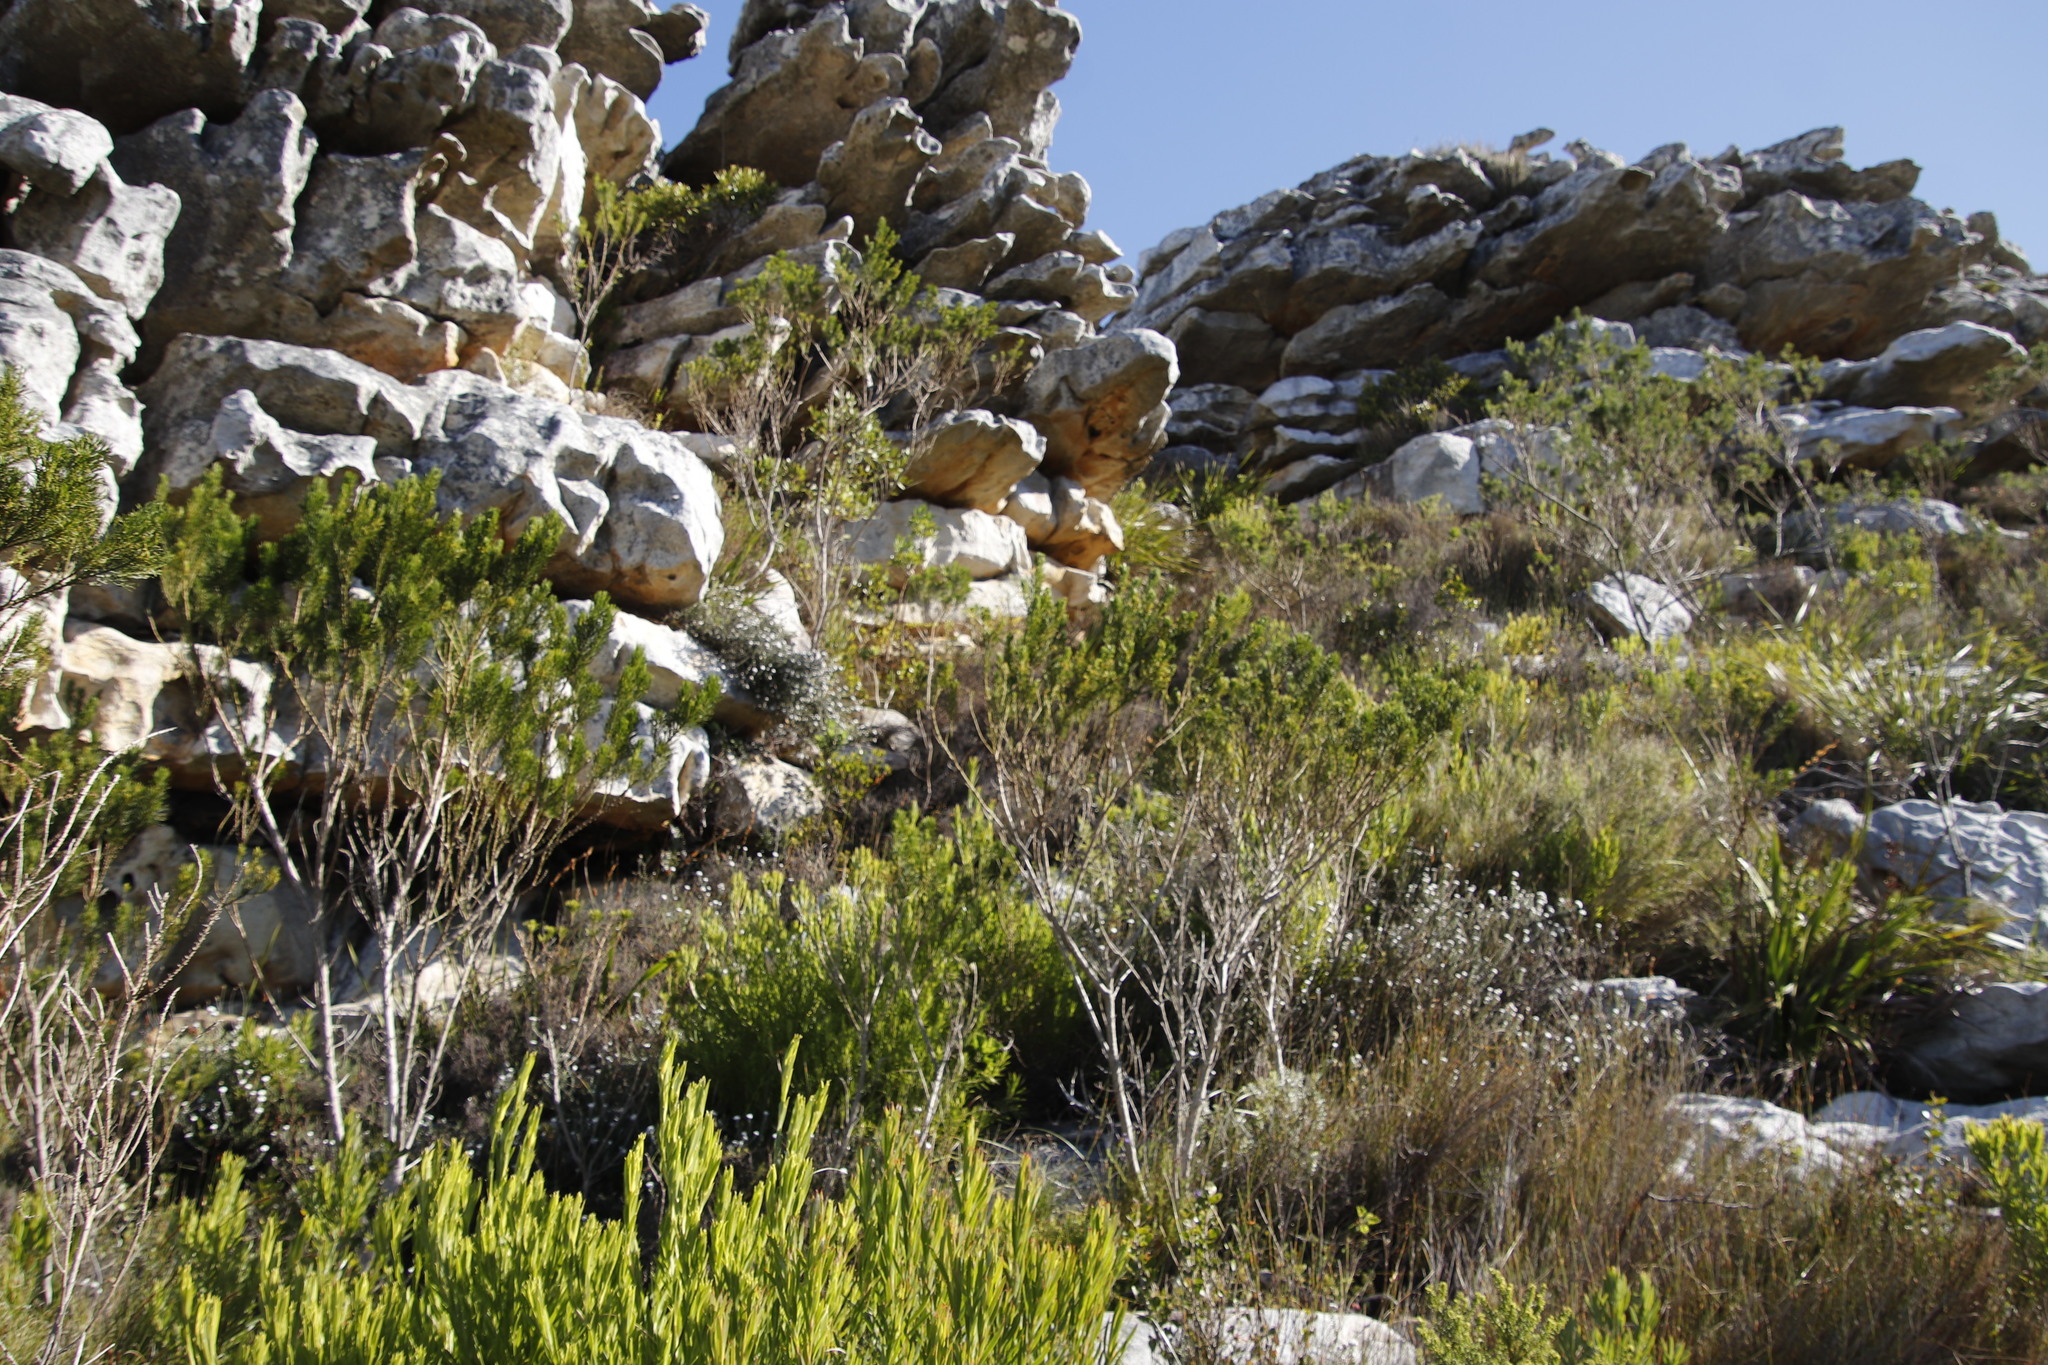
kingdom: Plantae
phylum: Tracheophyta
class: Magnoliopsida
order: Fabales
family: Fabaceae
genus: Psoralea
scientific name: Psoralea pinnata
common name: African scurfpea
